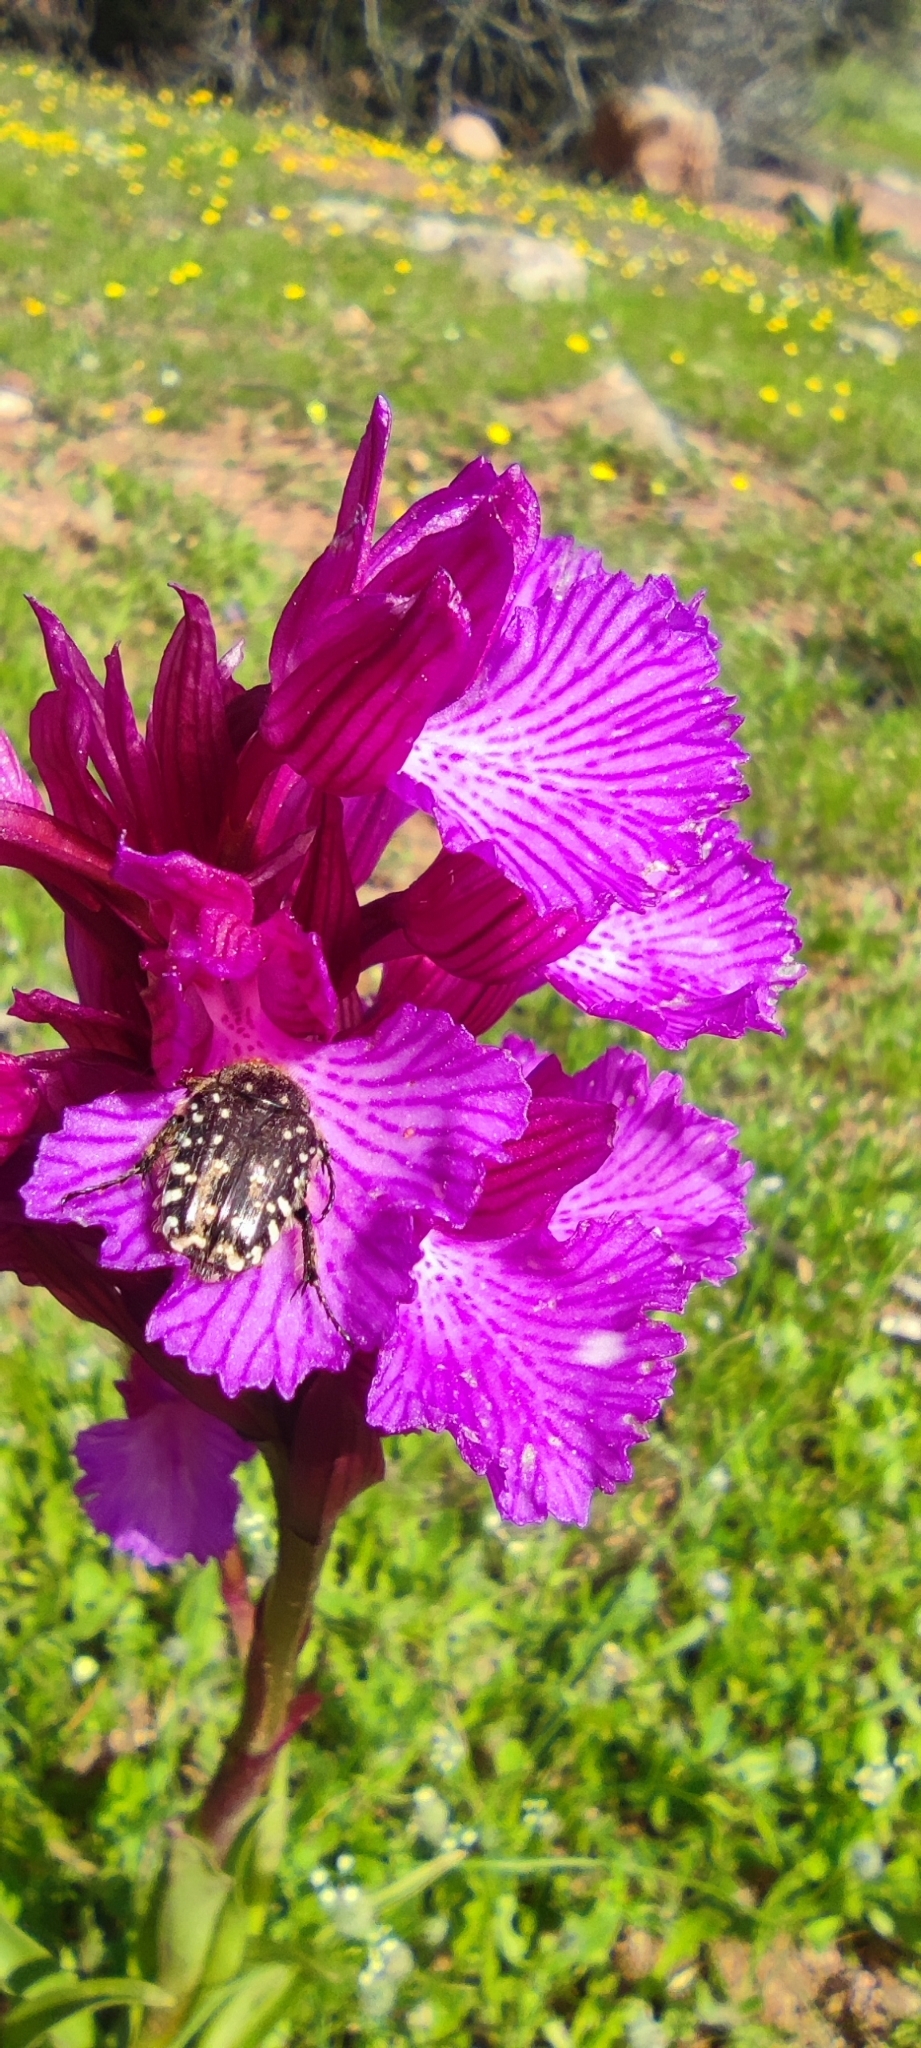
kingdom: Animalia
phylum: Arthropoda
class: Insecta
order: Coleoptera
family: Scarabaeidae
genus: Oxythyrea
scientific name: Oxythyrea funesta
